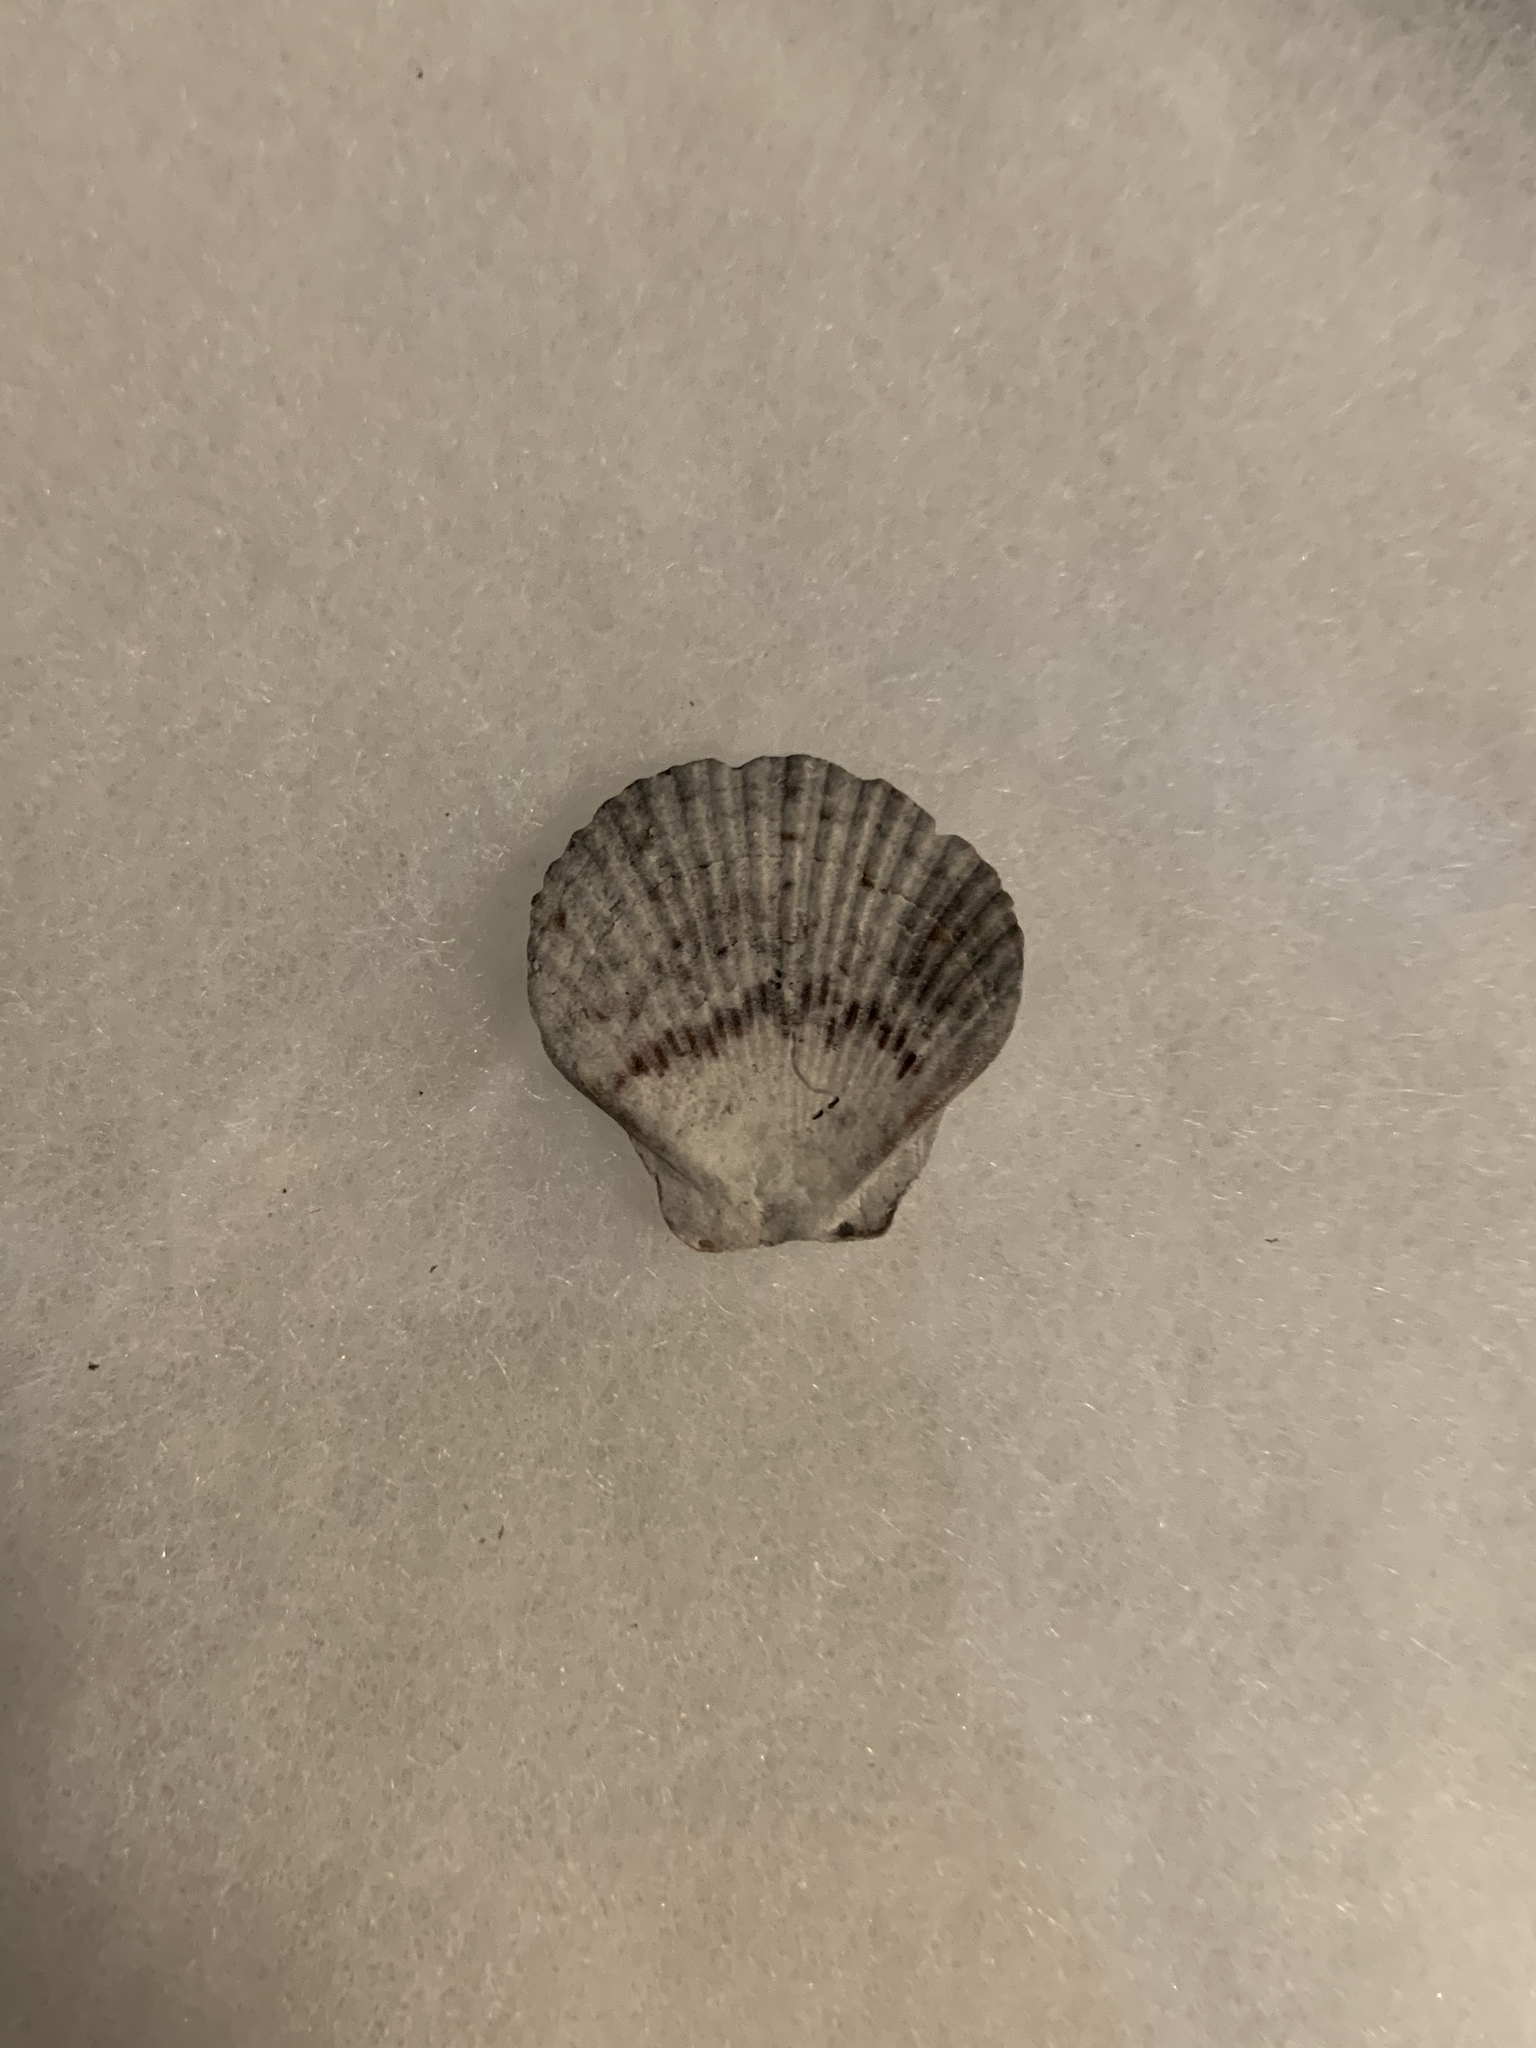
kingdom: Animalia
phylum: Mollusca
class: Bivalvia
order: Pectinida
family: Pectinidae
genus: Euvola
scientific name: Euvola raveneli
